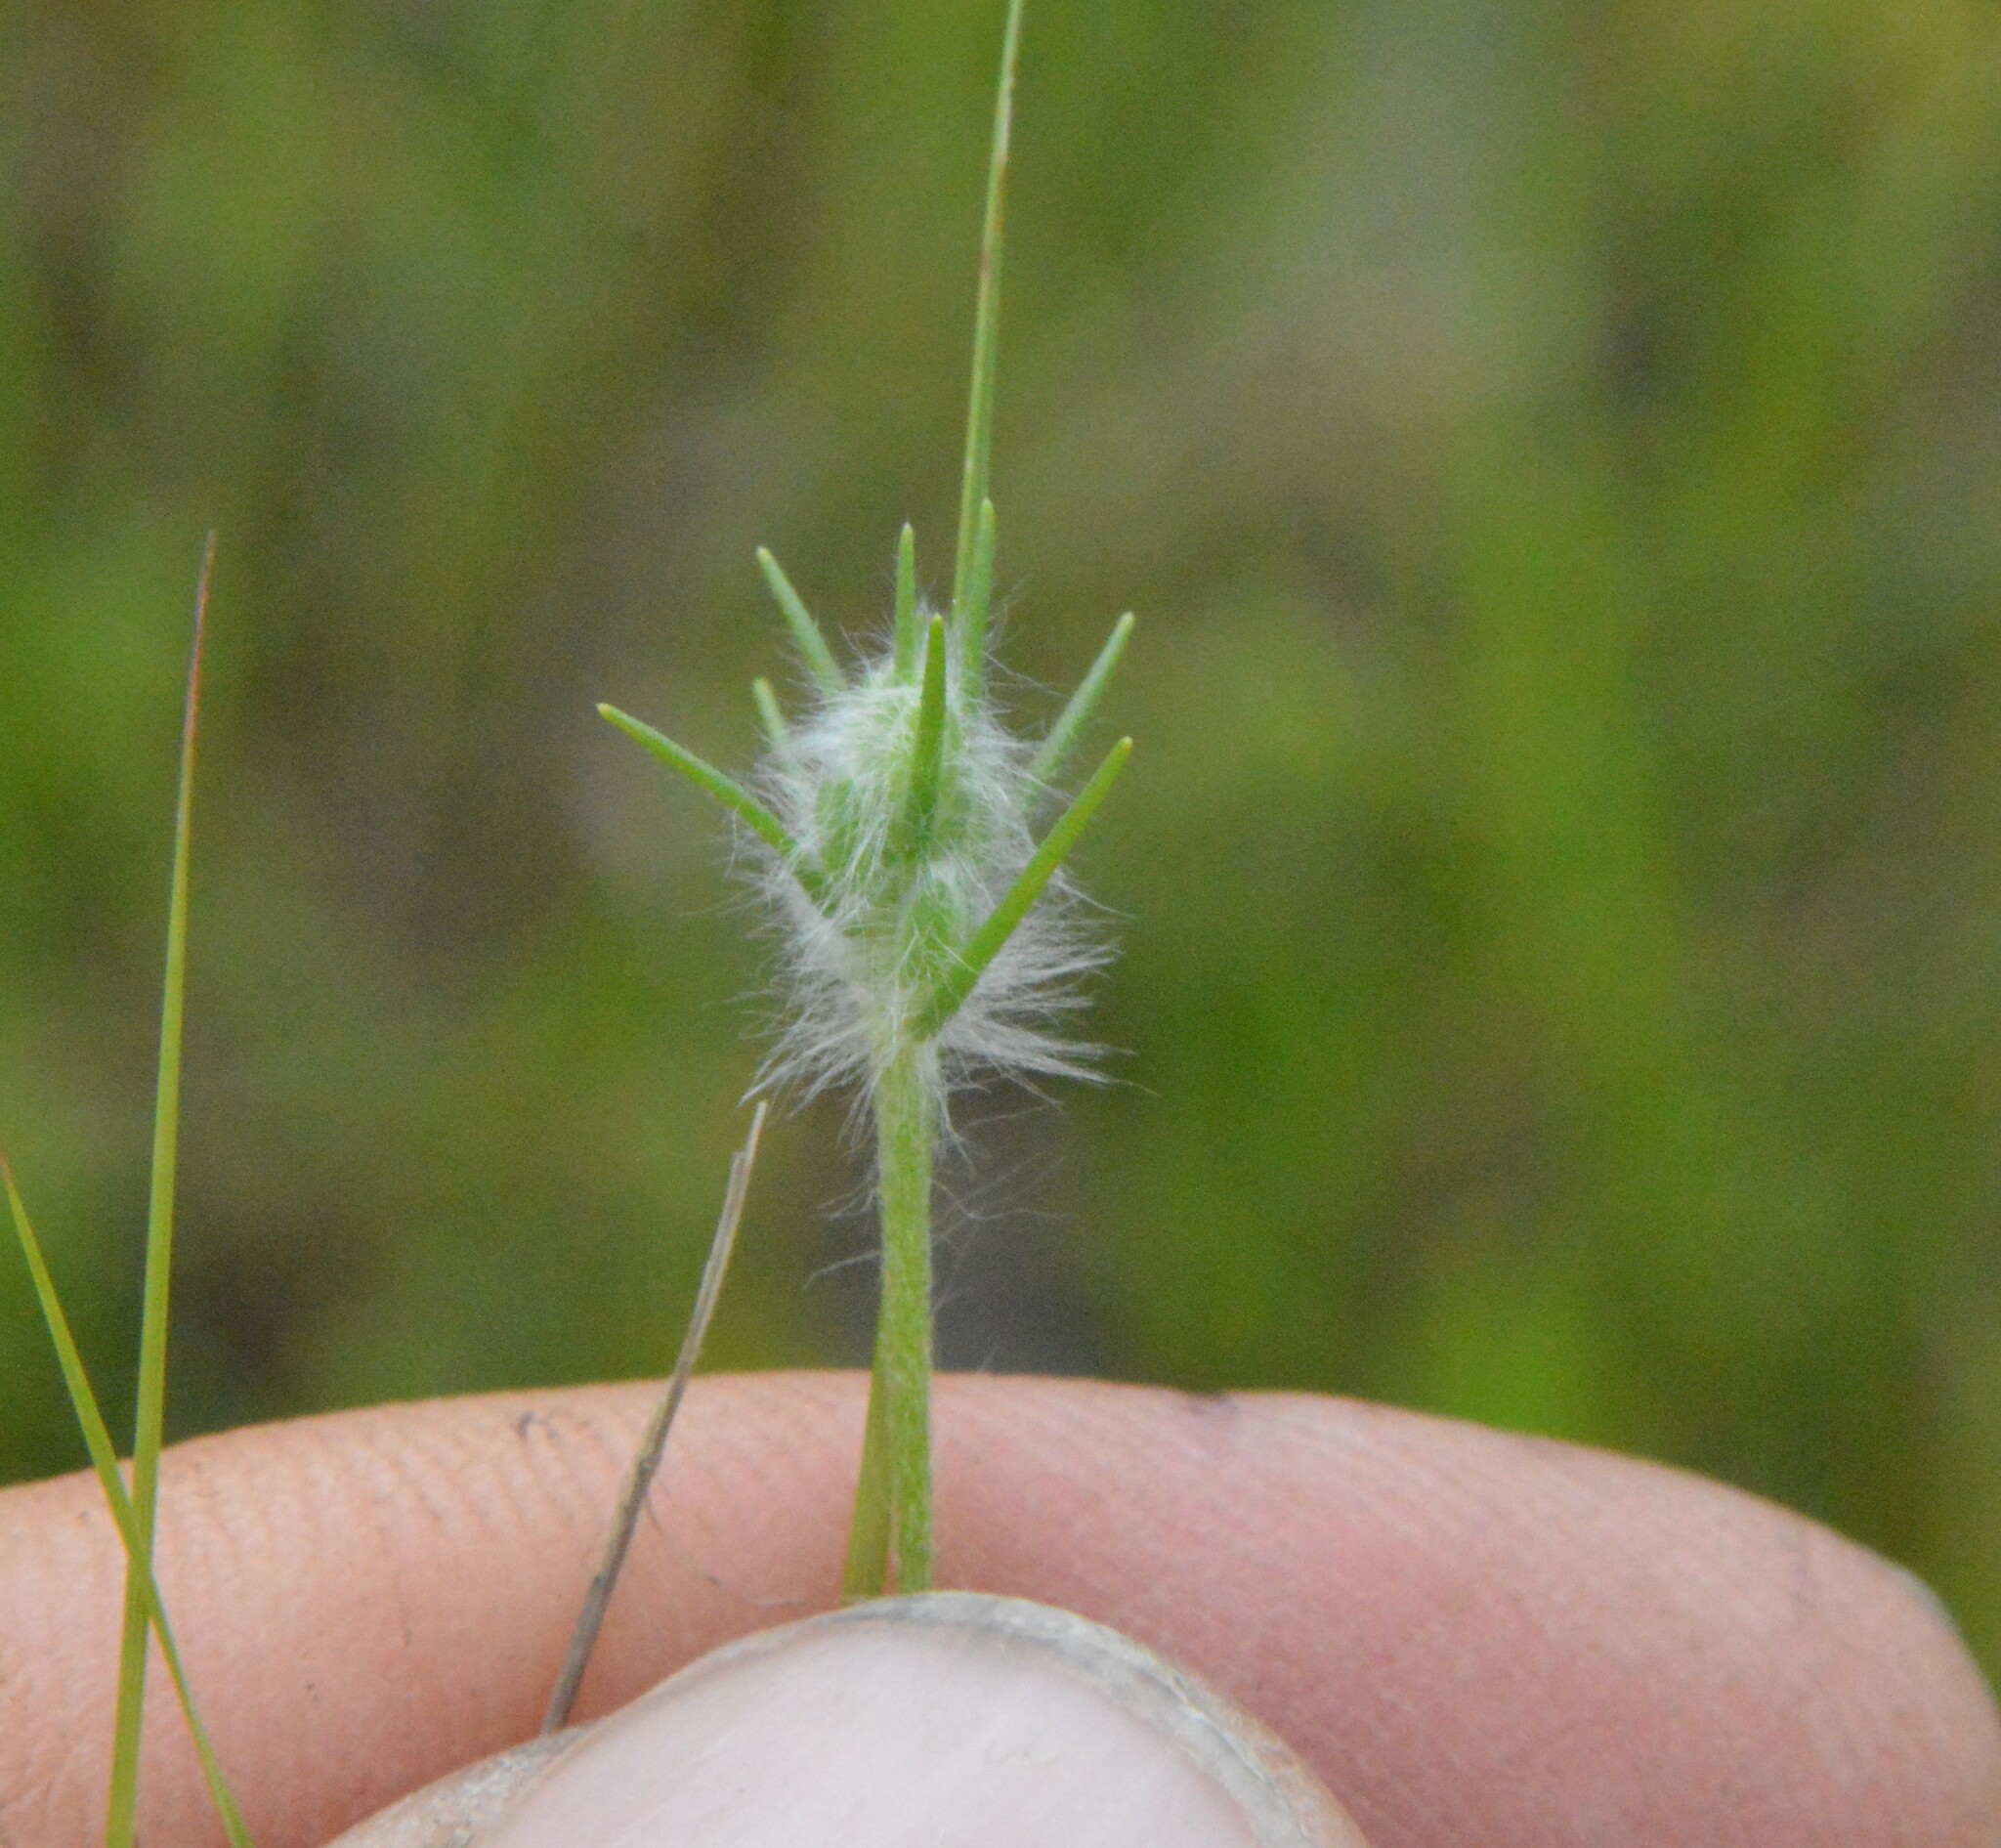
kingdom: Plantae
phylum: Tracheophyta
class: Magnoliopsida
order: Lamiales
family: Plantaginaceae
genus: Plantago
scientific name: Plantago aristata
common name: Bracted plantain
